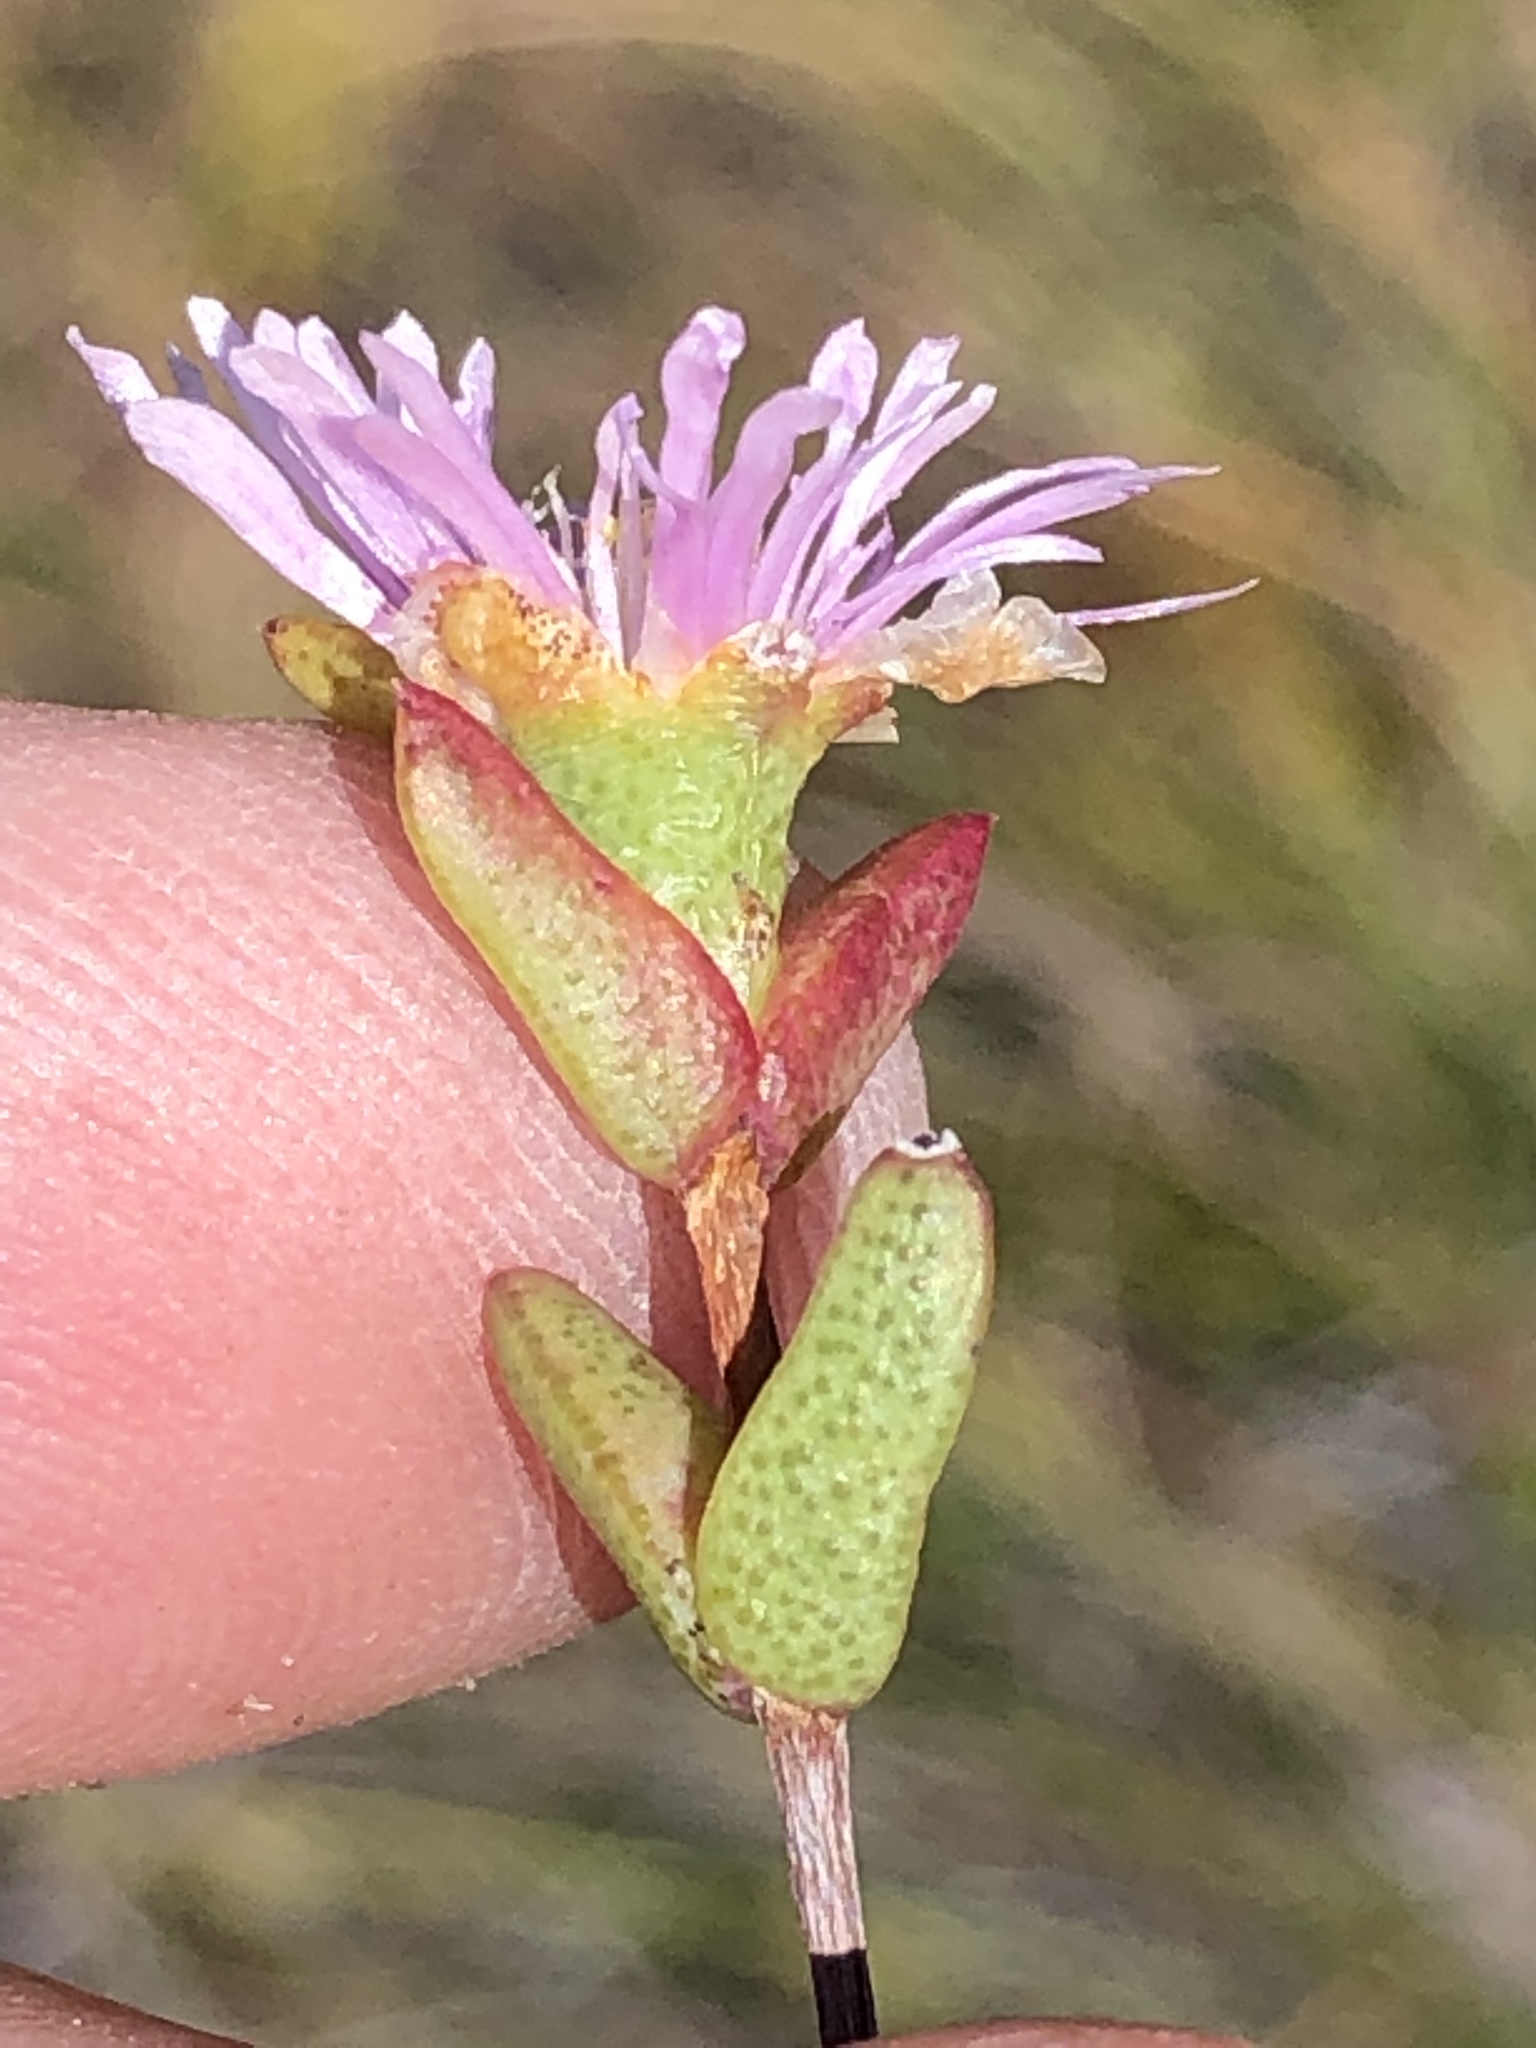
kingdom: Plantae
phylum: Tracheophyta
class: Magnoliopsida
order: Caryophyllales
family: Aizoaceae
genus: Ruschia
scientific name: Ruschia virgata
